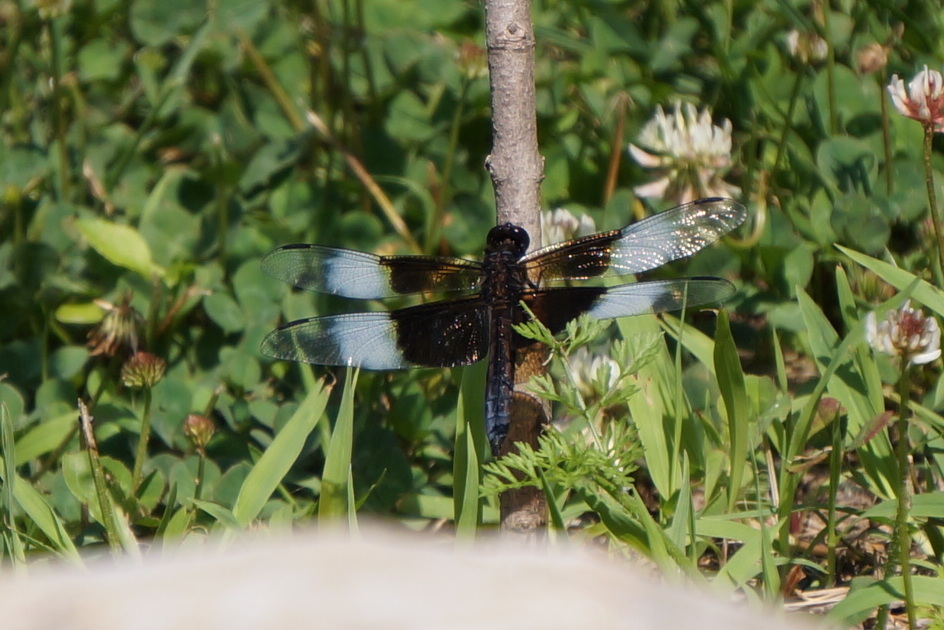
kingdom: Animalia
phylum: Arthropoda
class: Insecta
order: Odonata
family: Libellulidae
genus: Libellula
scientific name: Libellula luctuosa
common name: Widow skimmer
